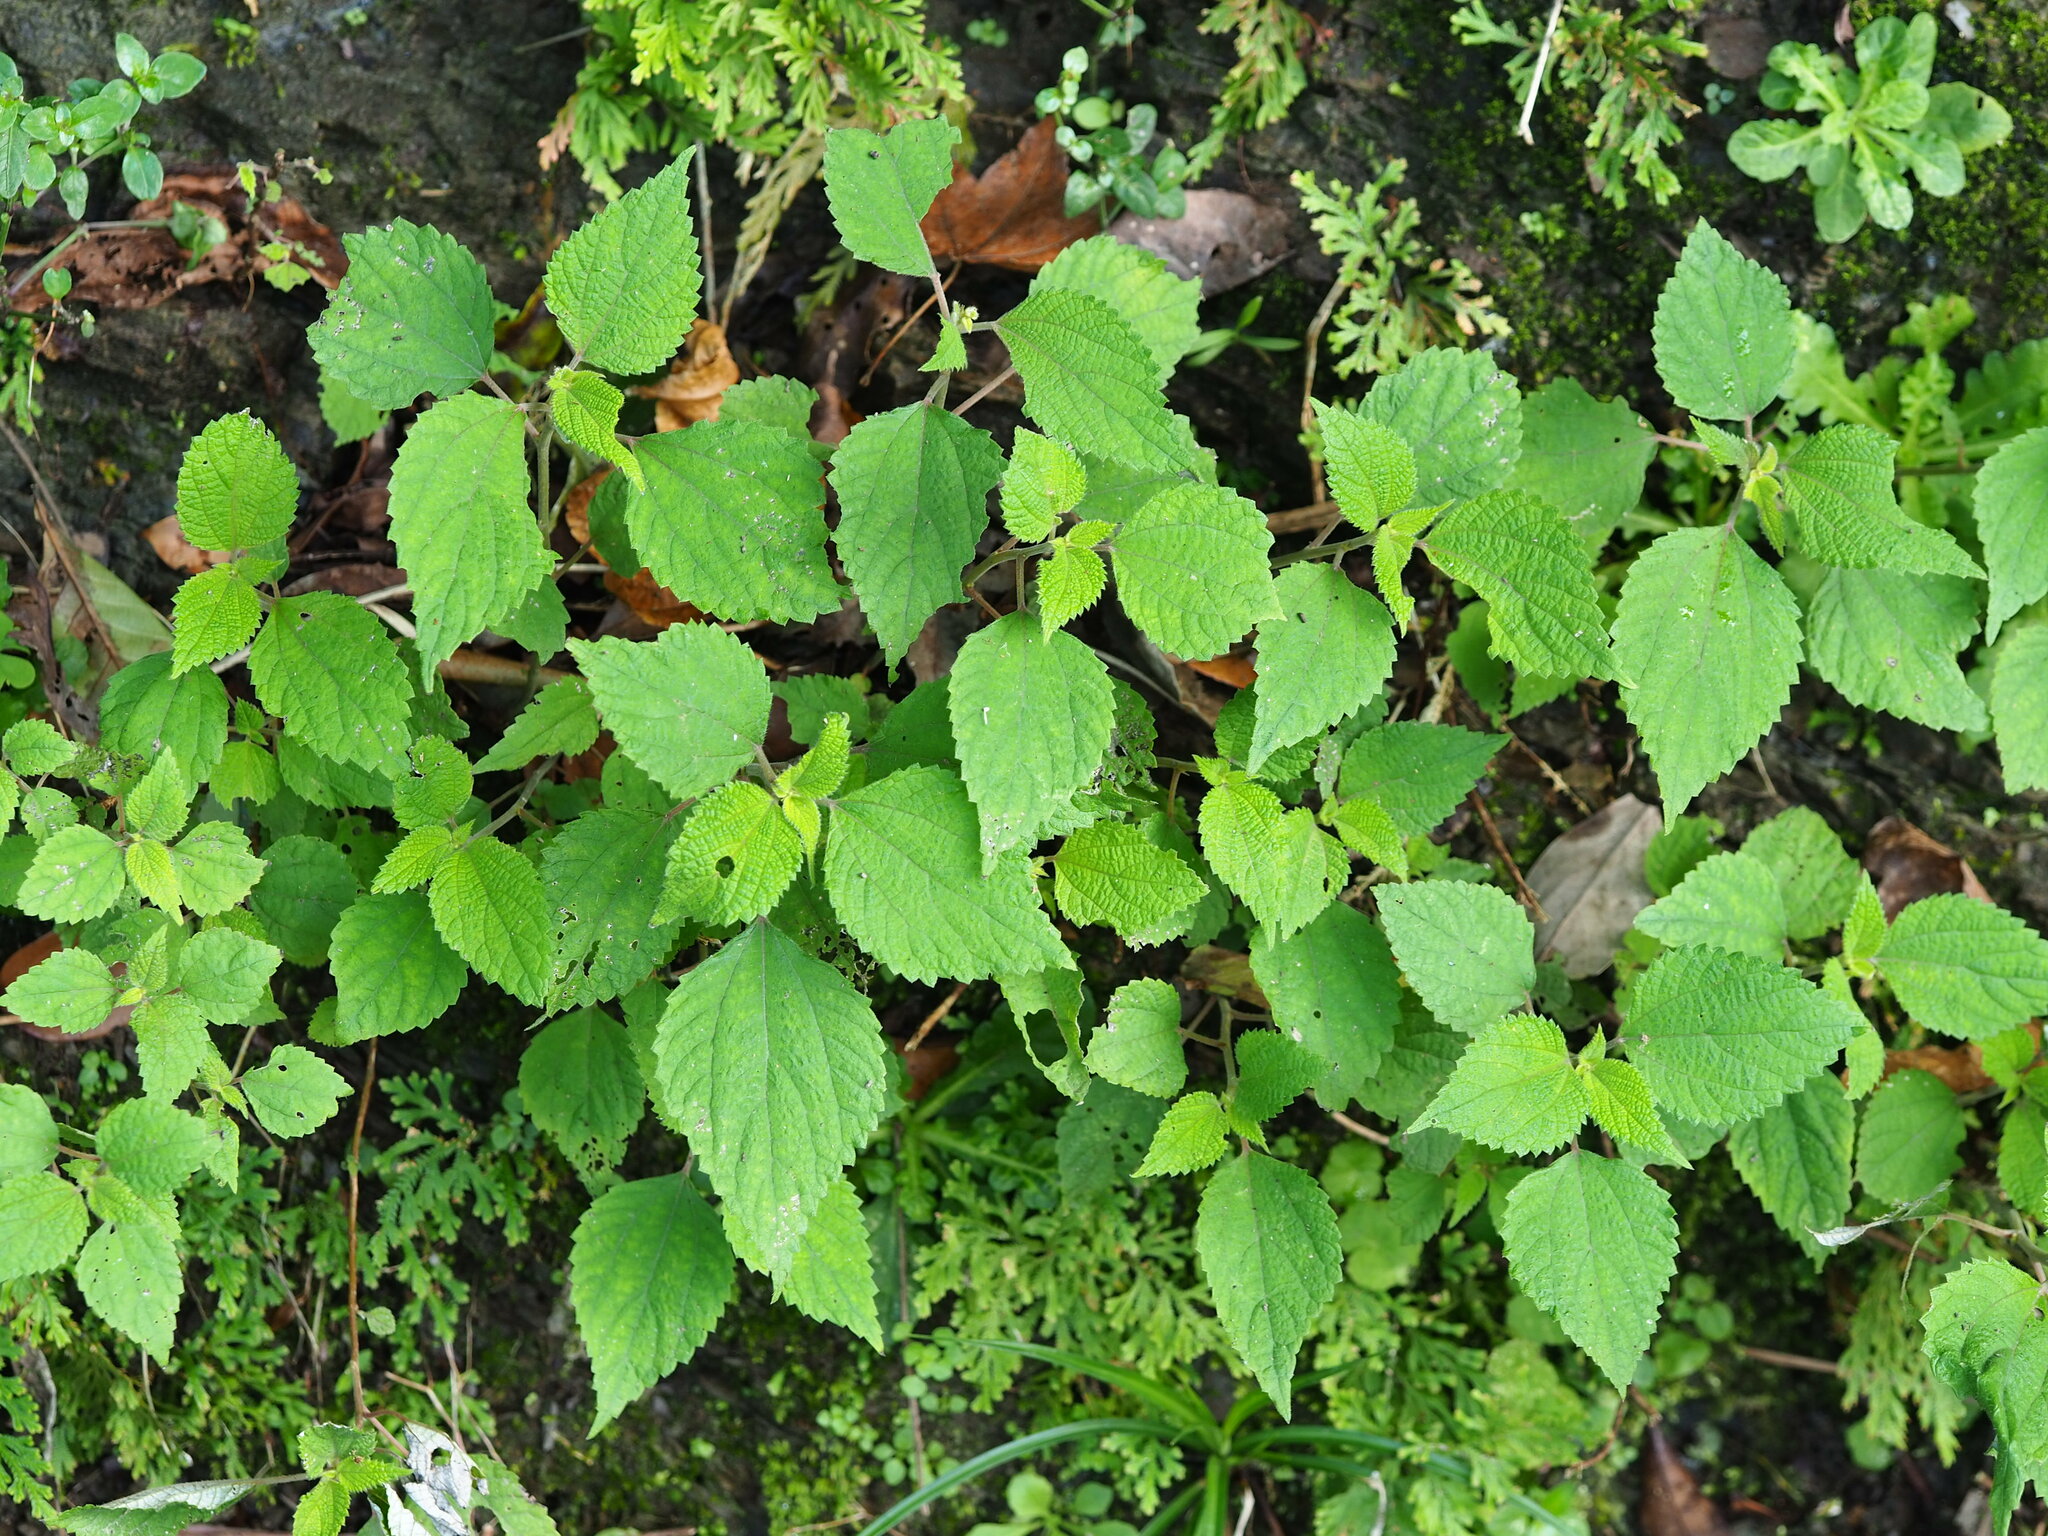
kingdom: Plantae
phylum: Tracheophyta
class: Magnoliopsida
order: Rosales
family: Urticaceae
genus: Boehmeria
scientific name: Boehmeria nivea
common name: Ramie chinese grass
